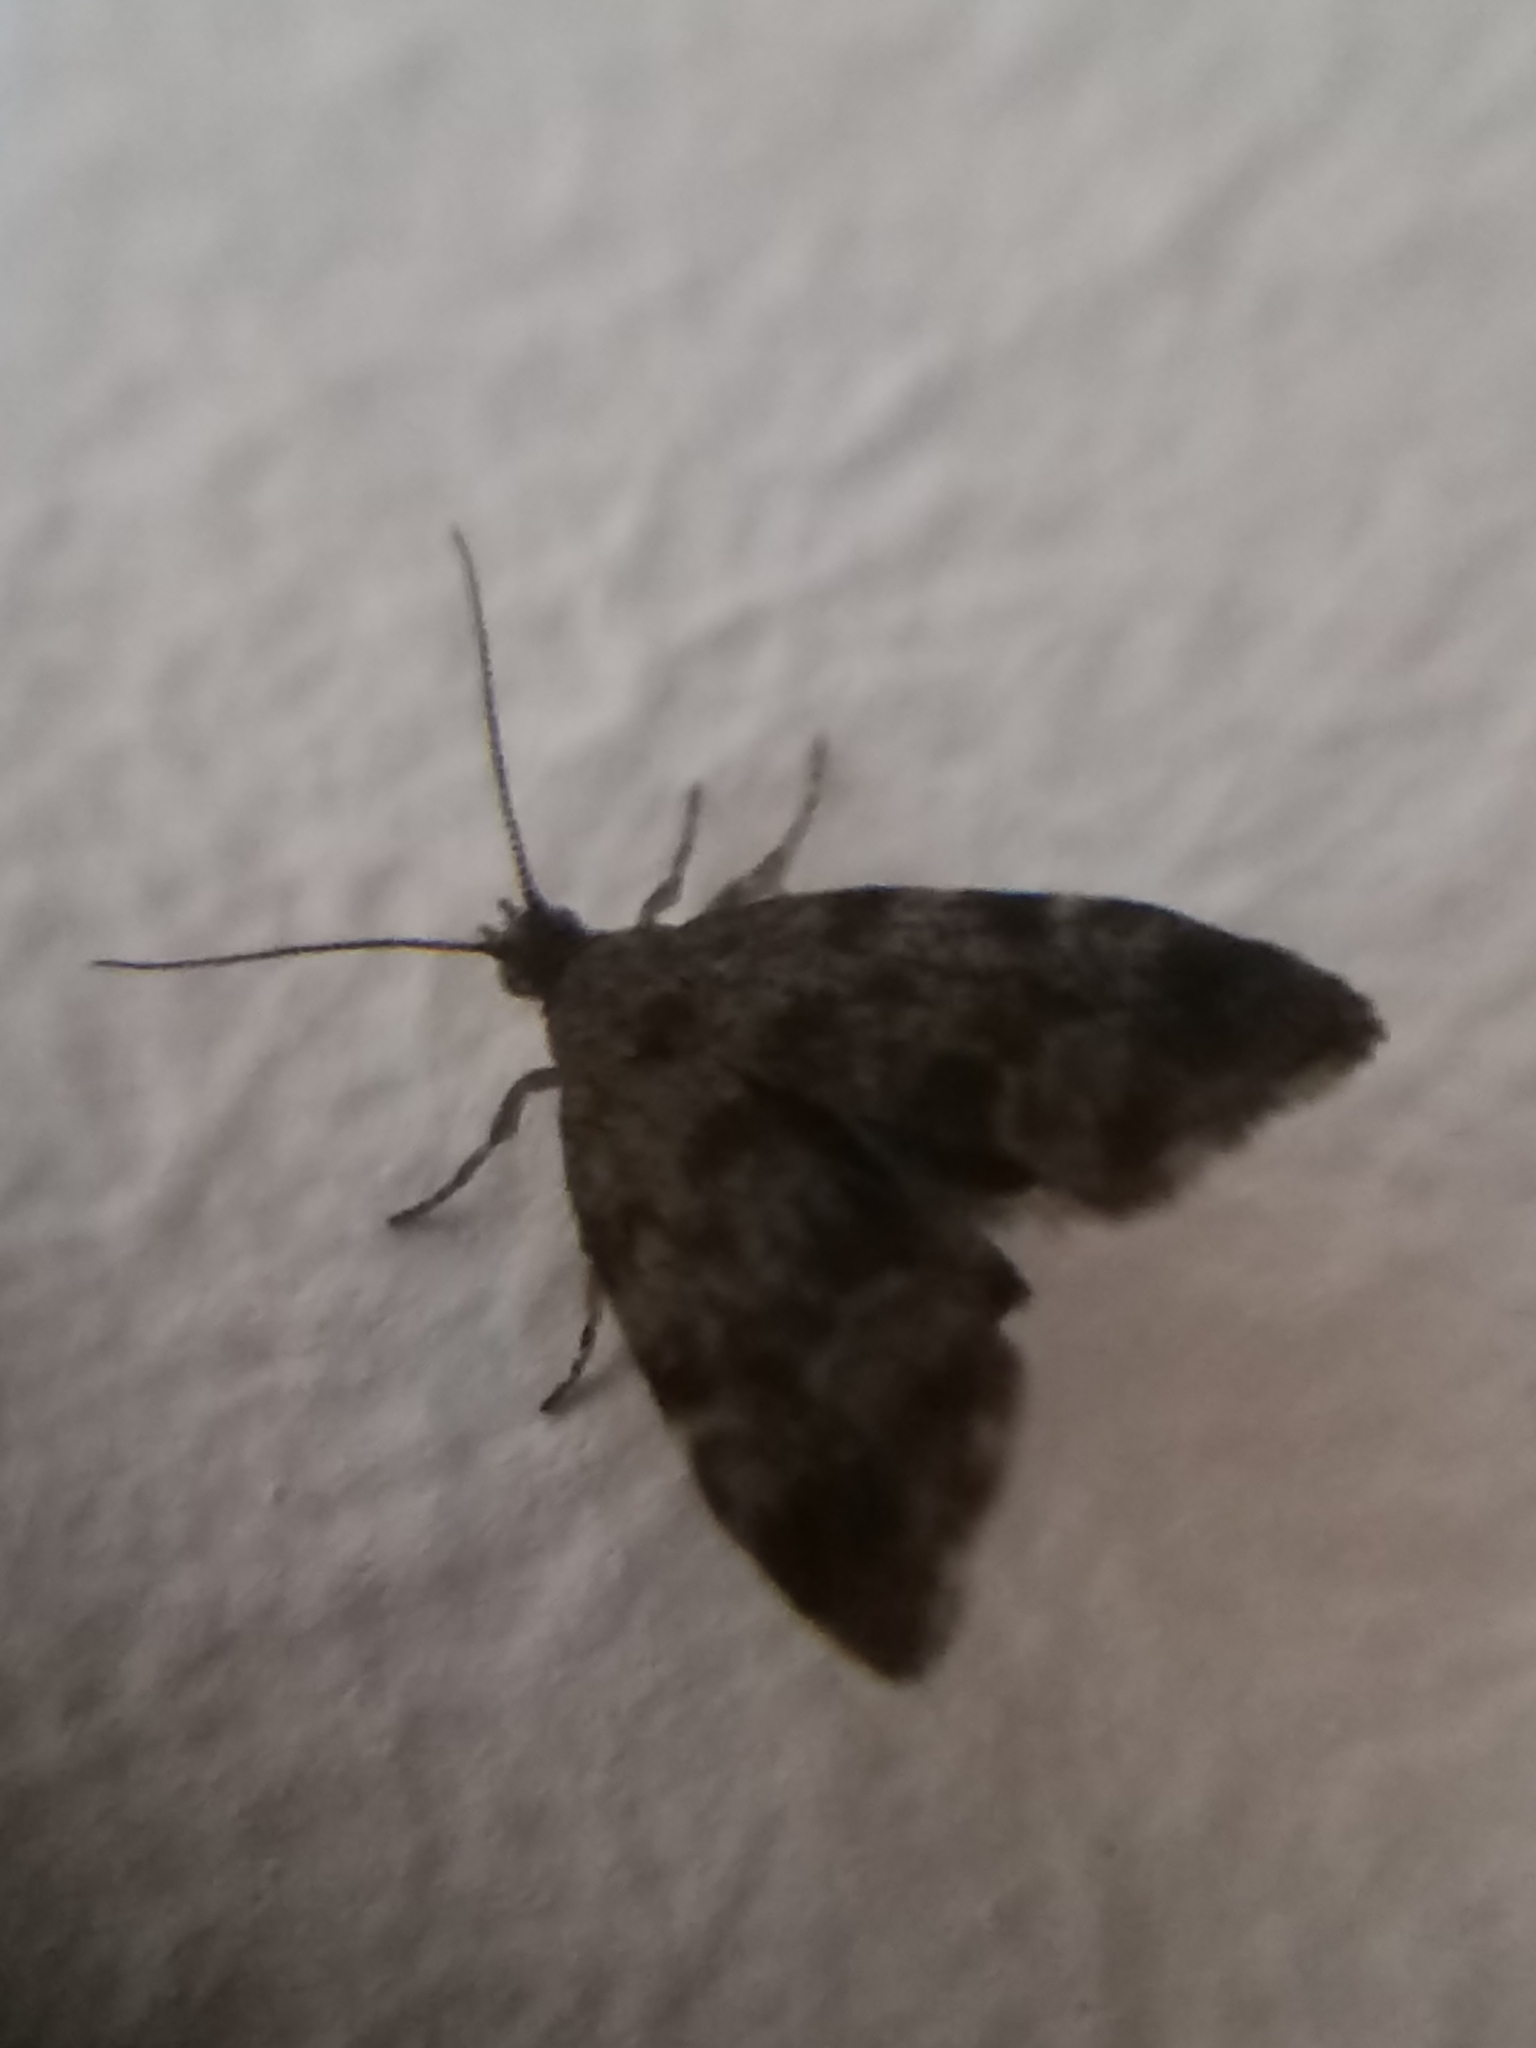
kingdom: Animalia
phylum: Arthropoda
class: Insecta
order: Lepidoptera
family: Choreutidae
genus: Anthophila
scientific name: Anthophila fabriciana
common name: Nettle-tap
